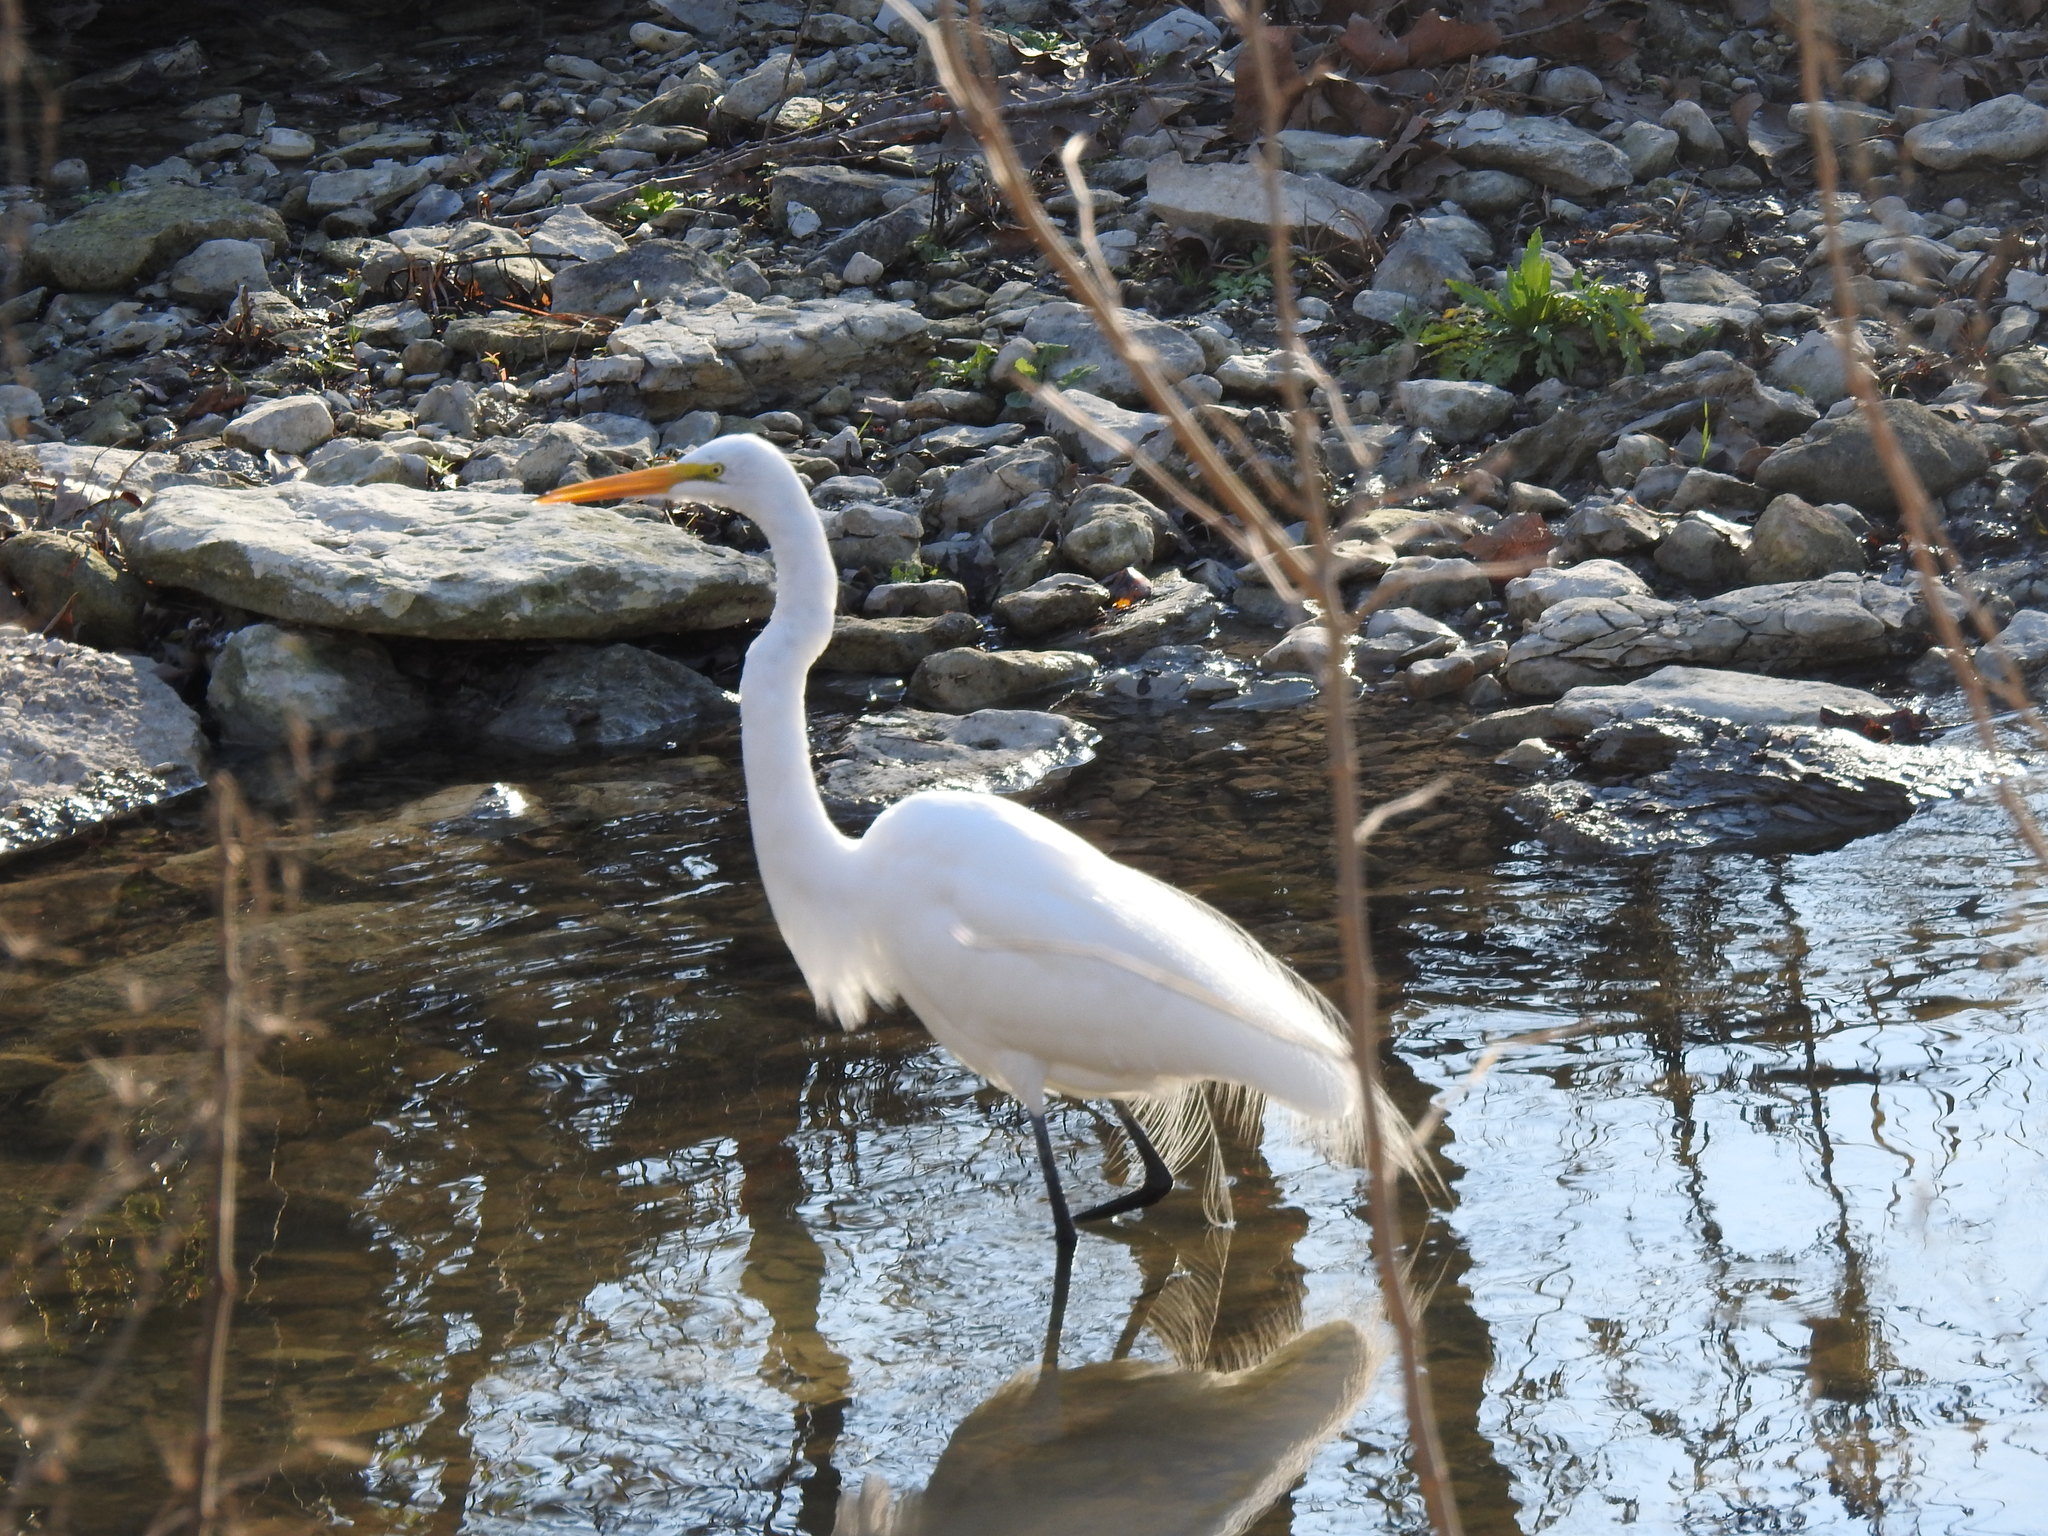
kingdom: Animalia
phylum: Chordata
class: Aves
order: Pelecaniformes
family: Ardeidae
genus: Ardea
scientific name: Ardea alba
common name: Great egret
